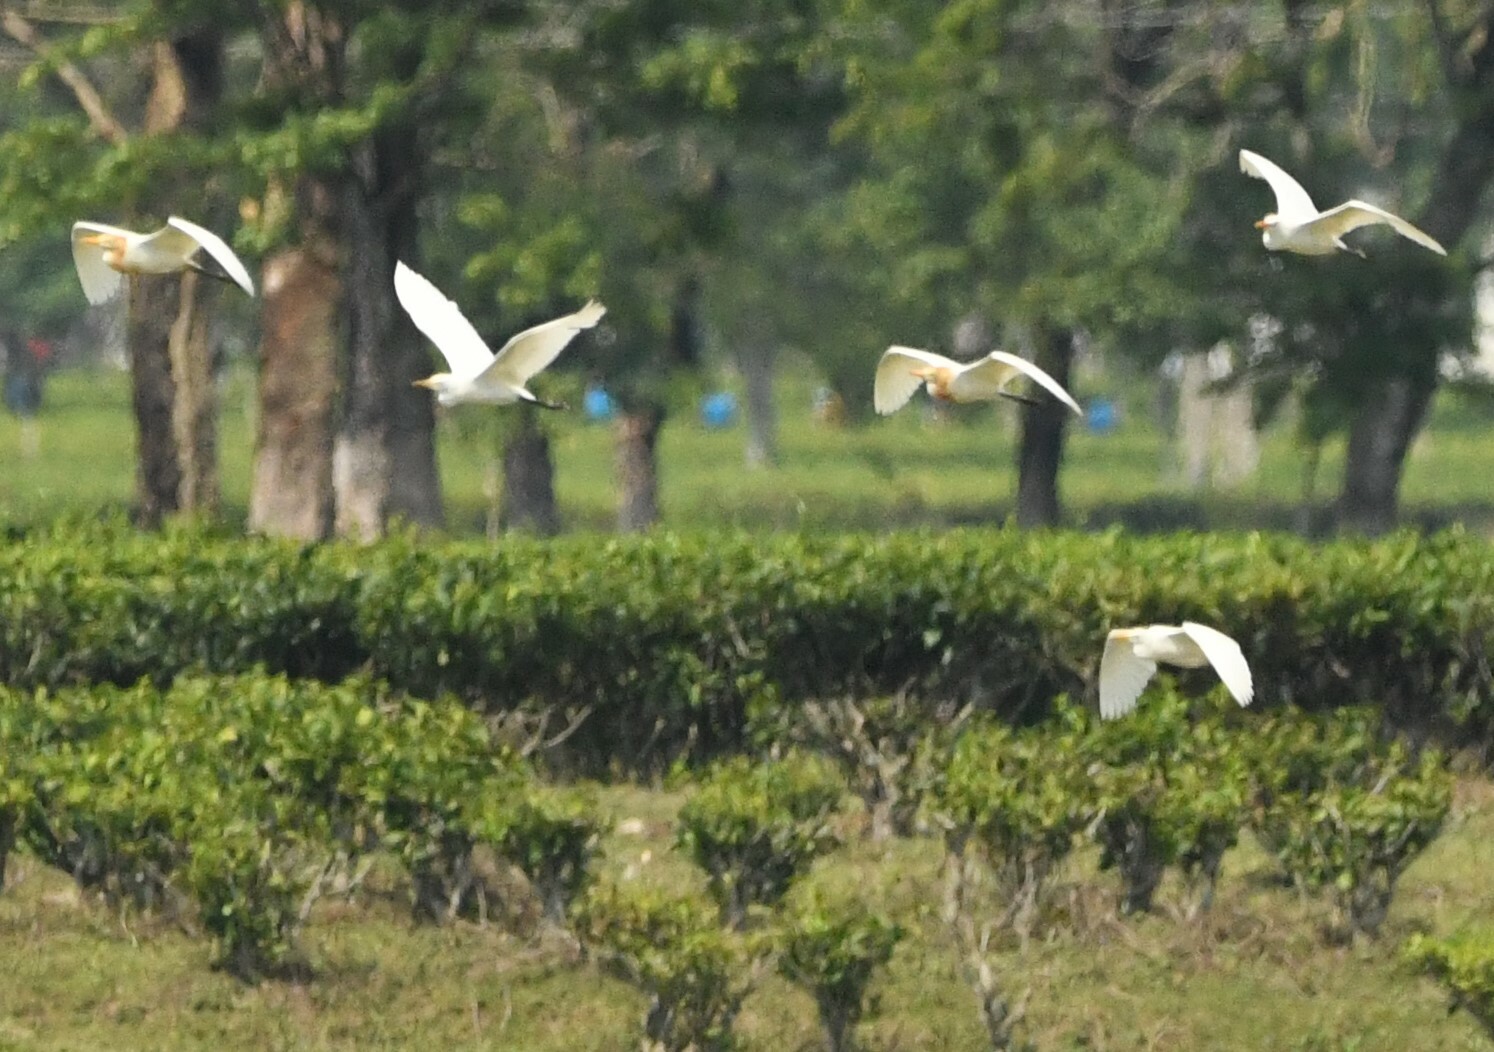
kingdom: Animalia
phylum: Chordata
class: Aves
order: Pelecaniformes
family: Ardeidae
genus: Bubulcus
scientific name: Bubulcus coromandus
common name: Eastern cattle egret
